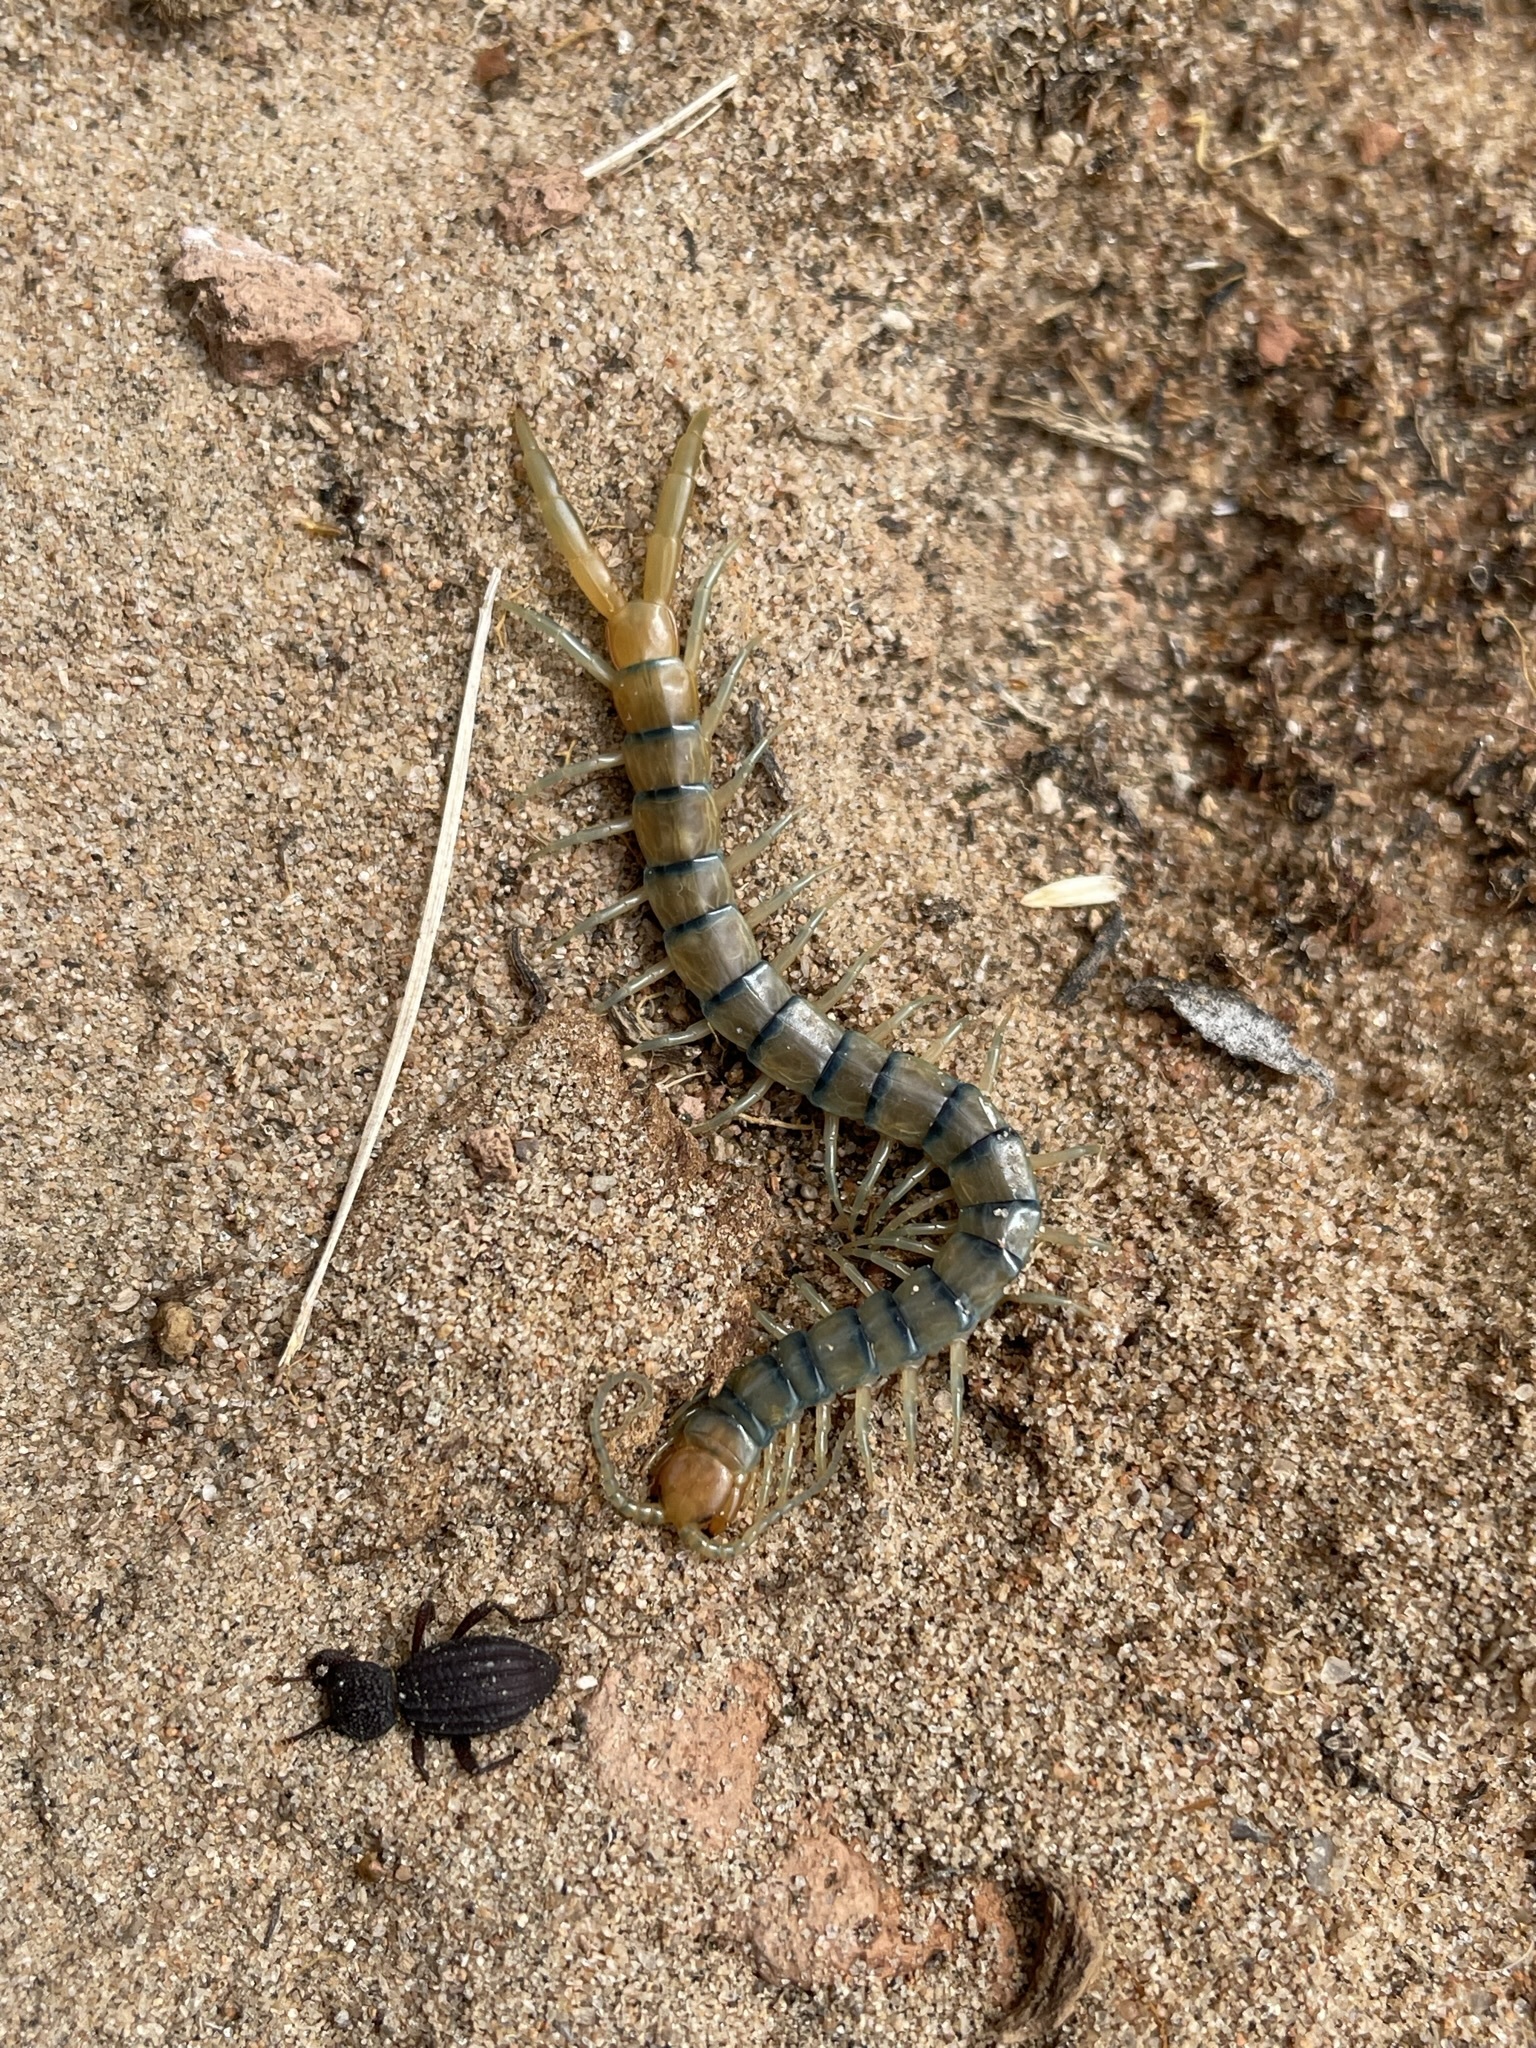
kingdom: Animalia
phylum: Arthropoda
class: Chilopoda
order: Scolopendromorpha
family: Scolopendridae
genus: Scolopendra
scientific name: Scolopendra polymorpha
